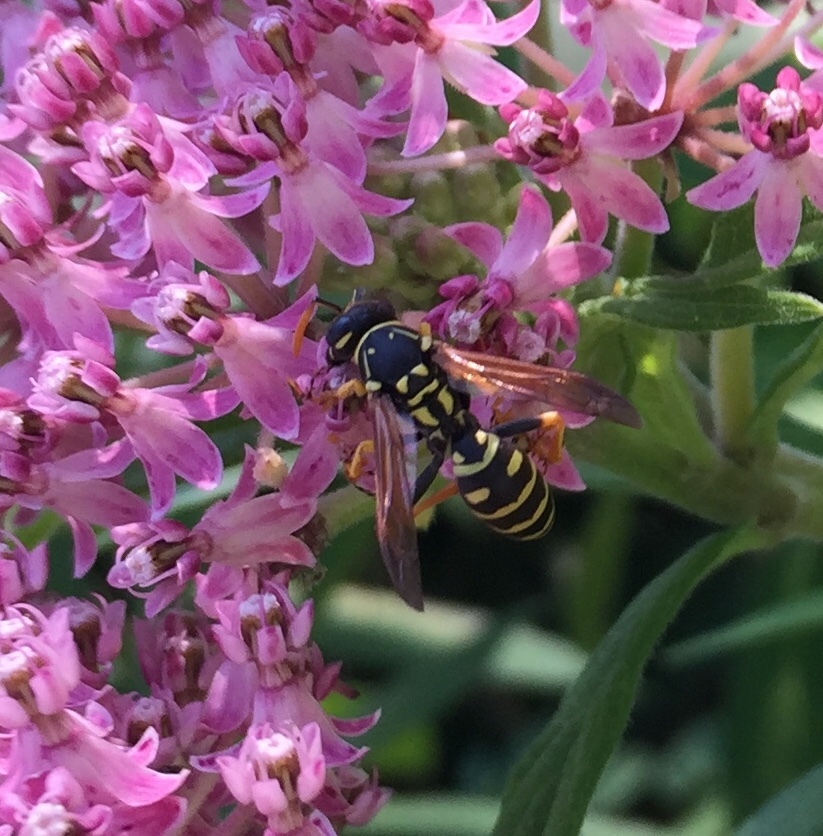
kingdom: Animalia
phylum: Arthropoda
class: Insecta
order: Hymenoptera
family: Eumenidae
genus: Polistes
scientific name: Polistes dominula
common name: Paper wasp
